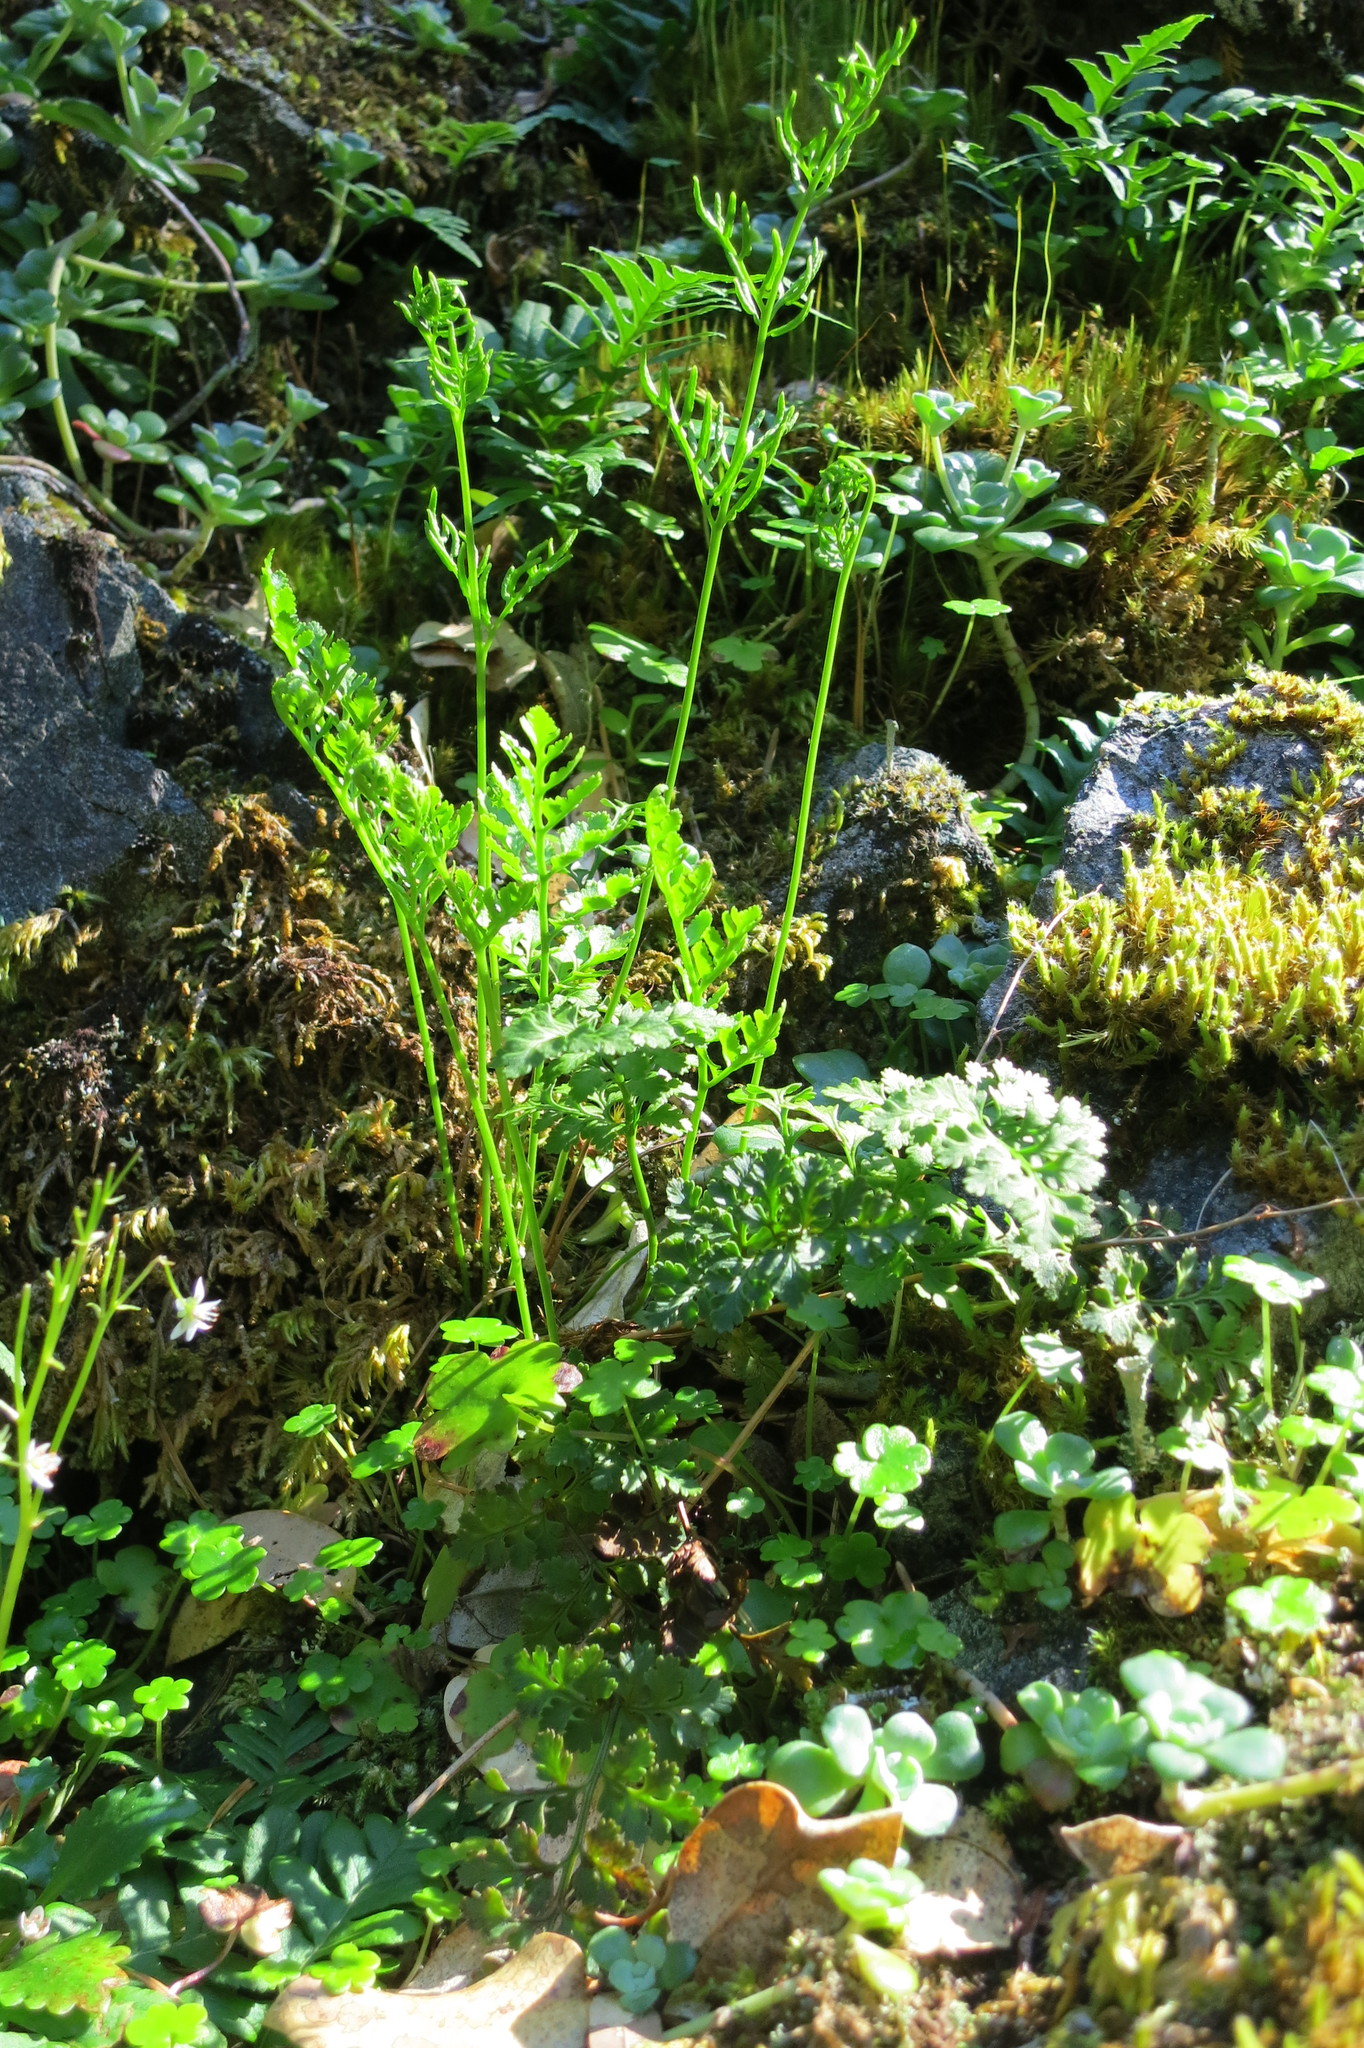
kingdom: Plantae
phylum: Tracheophyta
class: Polypodiopsida
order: Polypodiales
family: Pteridaceae
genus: Cryptogramma
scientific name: Cryptogramma acrostichoides
